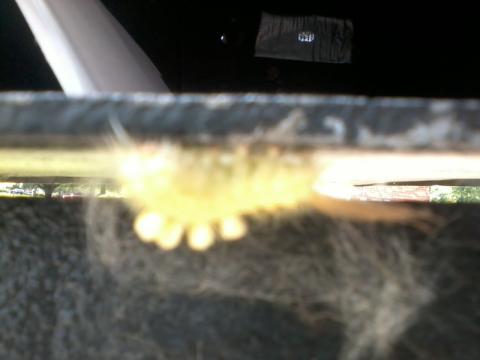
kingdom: Animalia
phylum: Arthropoda
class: Insecta
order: Lepidoptera
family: Erebidae
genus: Orgyia
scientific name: Orgyia leucostigma
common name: White-marked tussock moth
